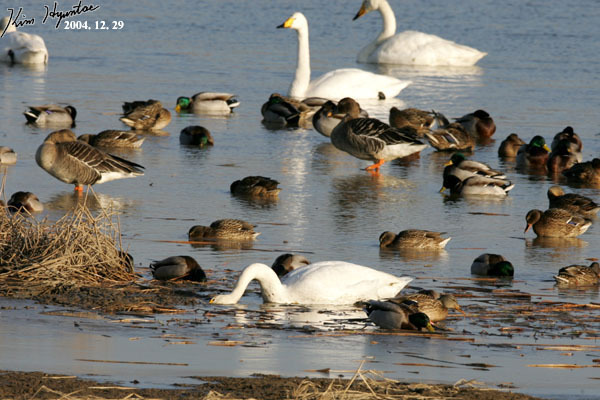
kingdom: Animalia
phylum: Chordata
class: Aves
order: Anseriformes
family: Anatidae
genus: Cygnus
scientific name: Cygnus cygnus
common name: Whooper swan
